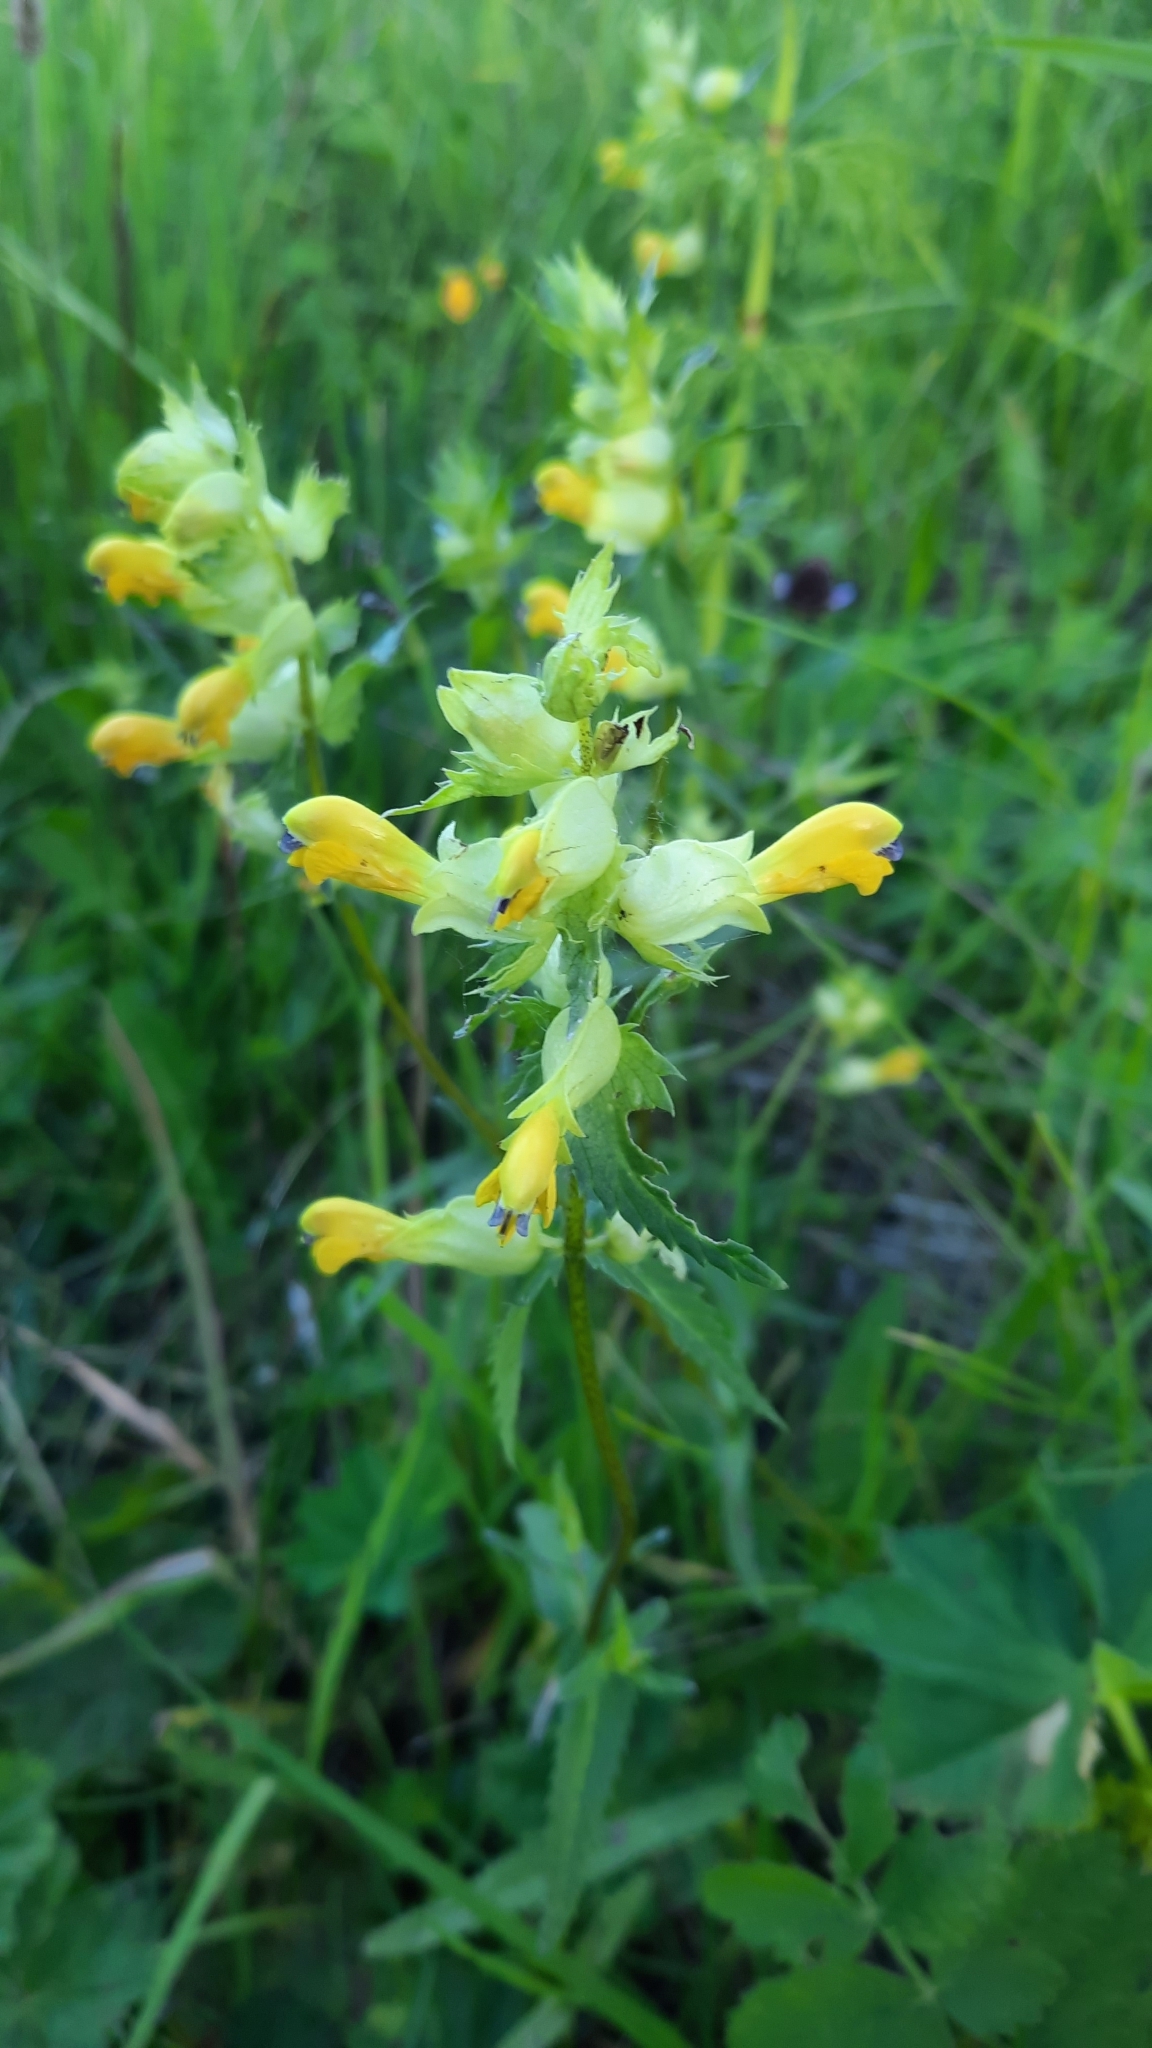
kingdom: Plantae
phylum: Tracheophyta
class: Magnoliopsida
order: Lamiales
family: Orobanchaceae
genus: Rhinanthus
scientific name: Rhinanthus serotinus
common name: Late-flowering yellow rattle
